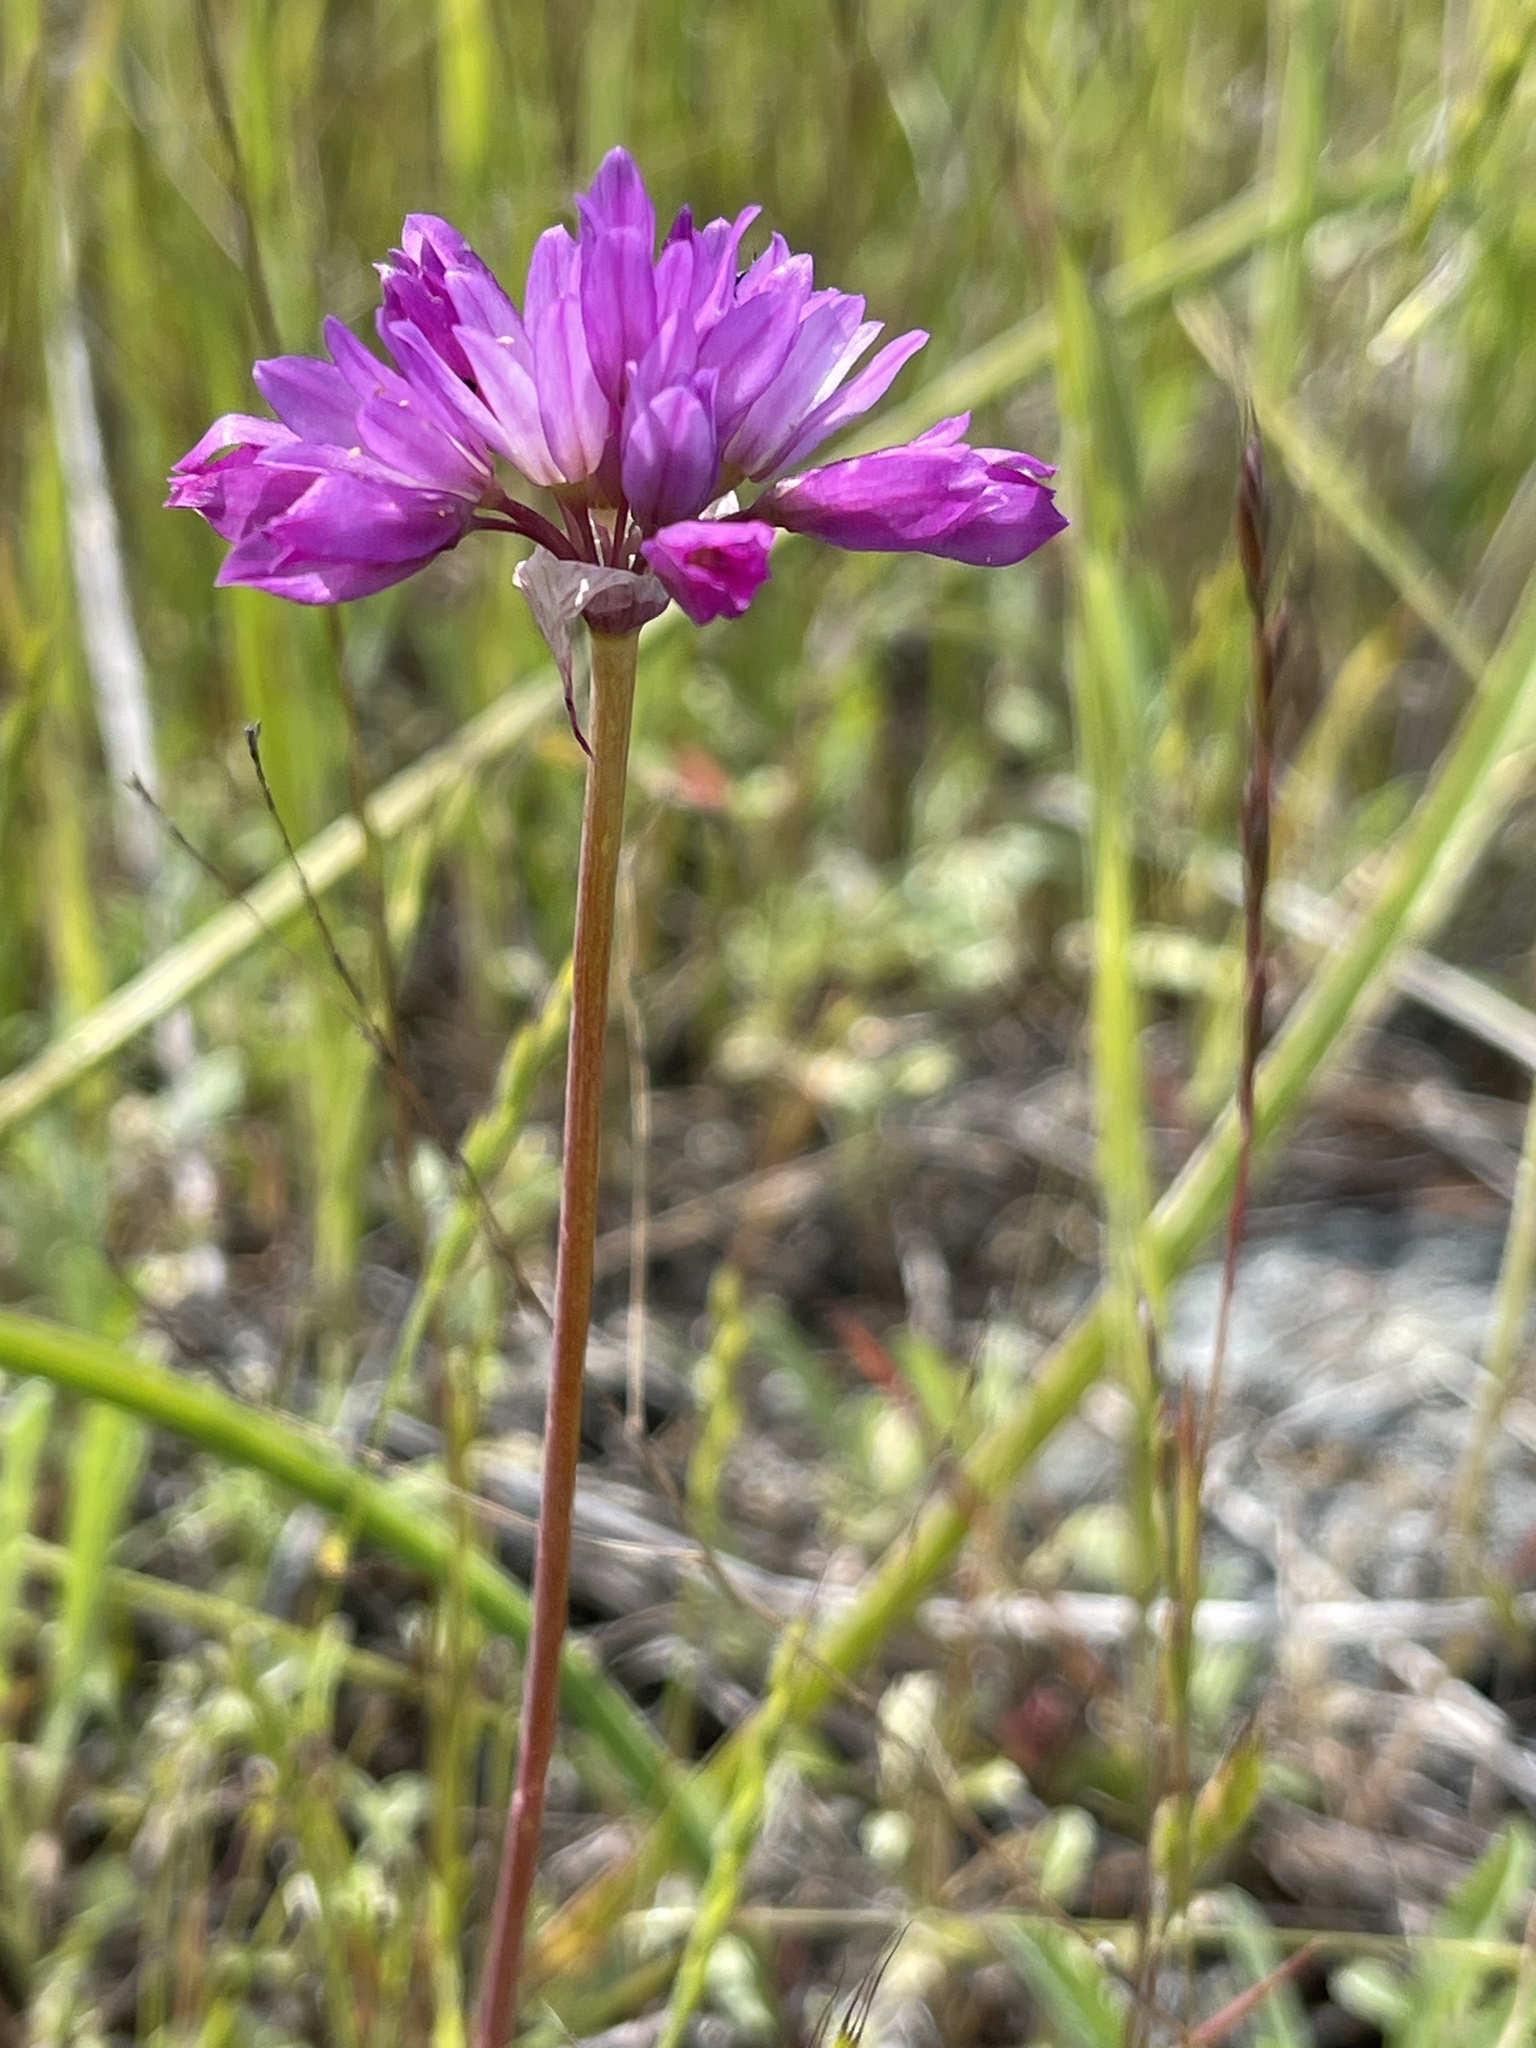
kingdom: Plantae
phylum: Tracheophyta
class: Liliopsida
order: Asparagales
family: Amaryllidaceae
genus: Allium
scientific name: Allium serra
